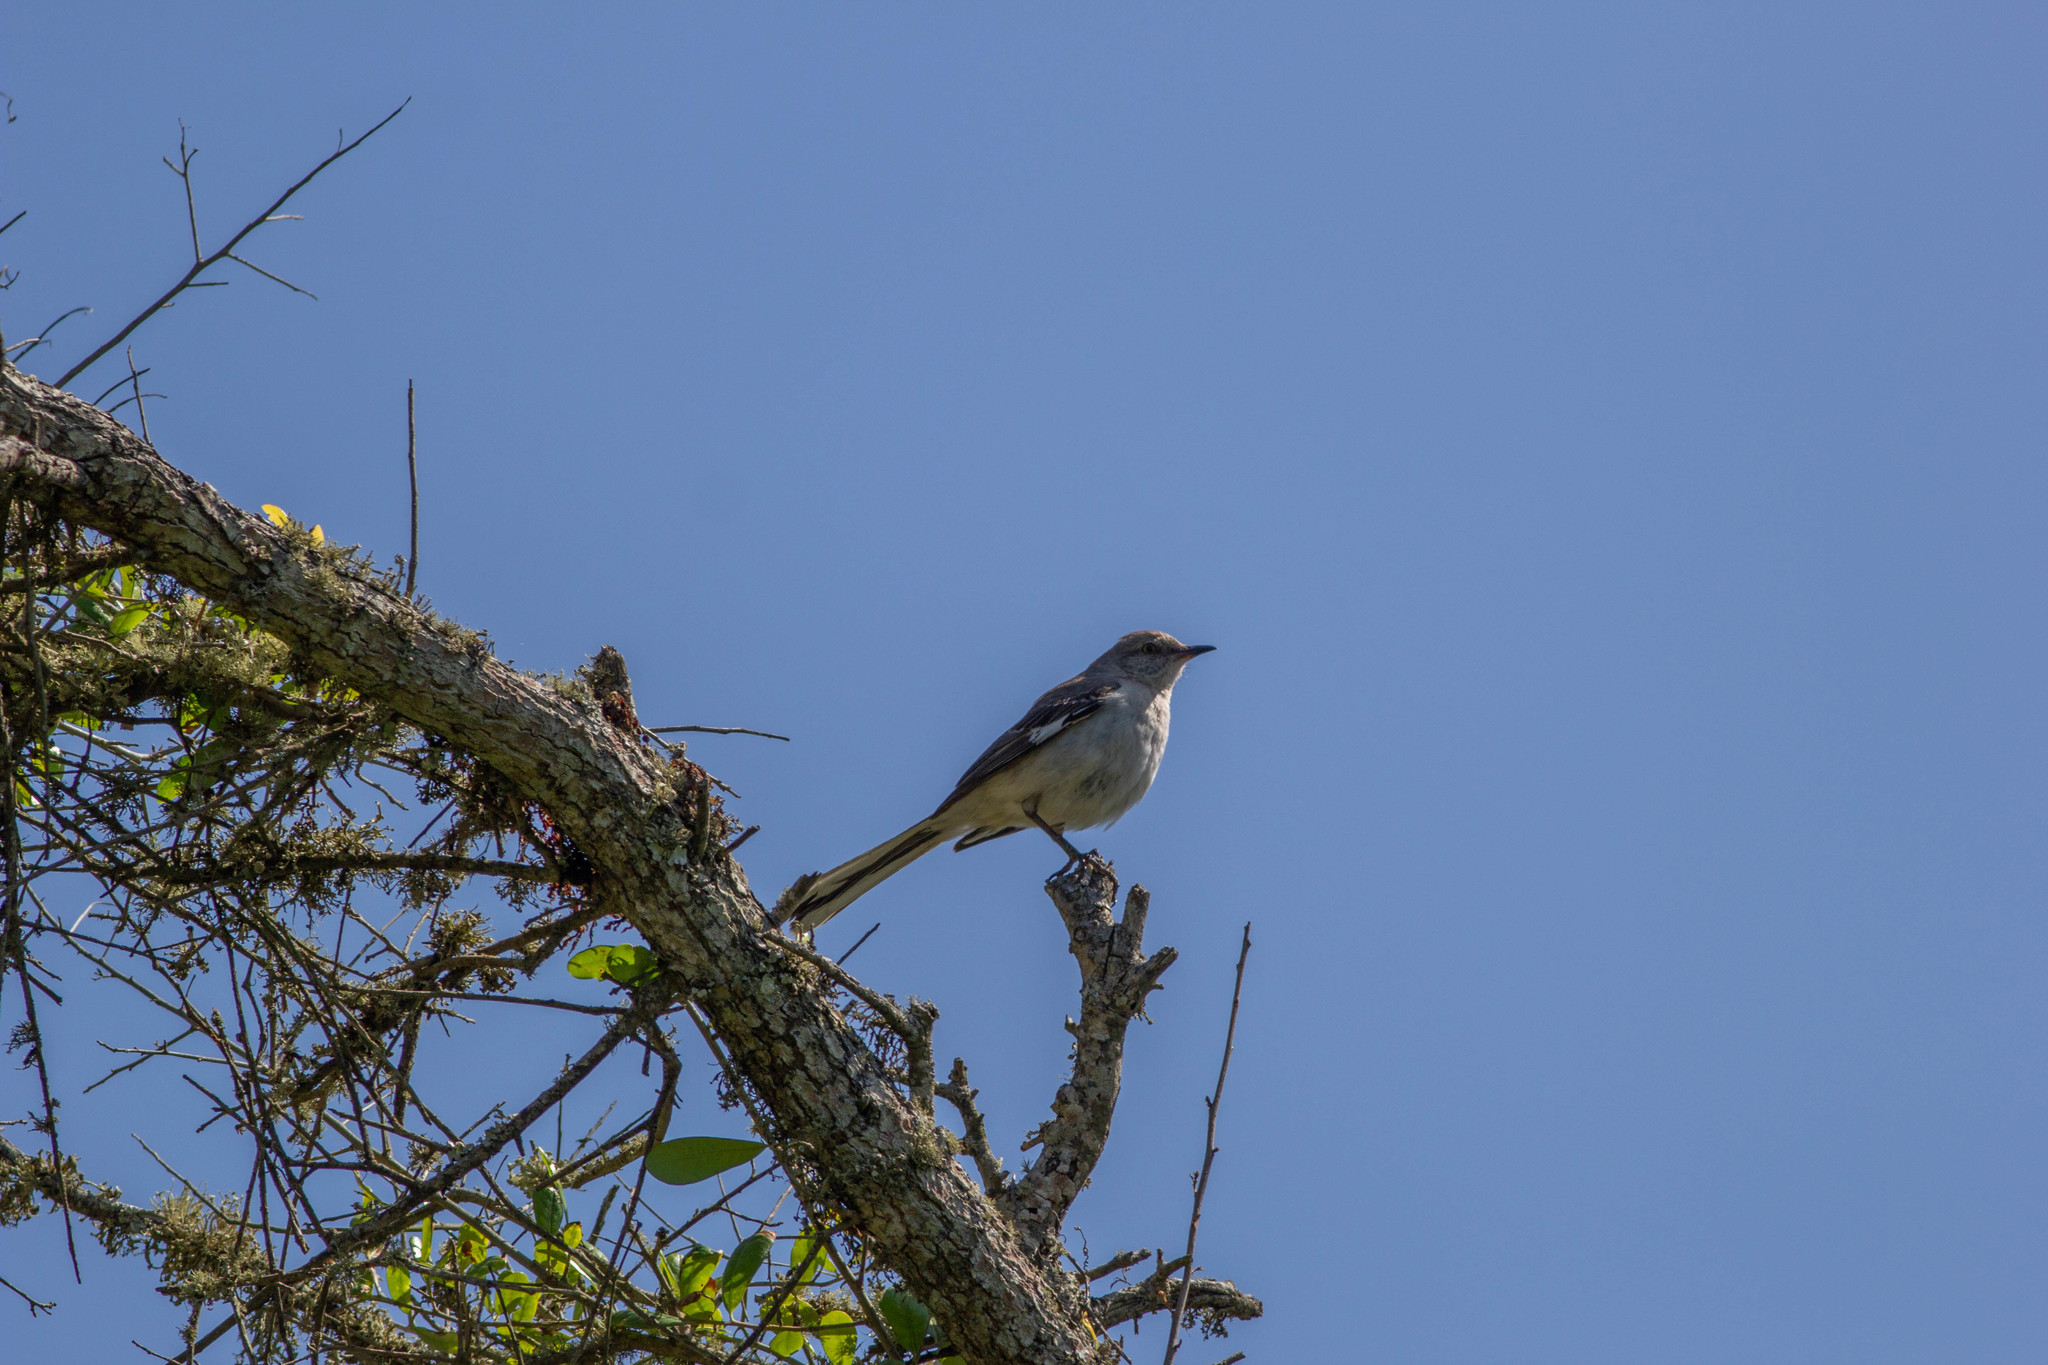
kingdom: Animalia
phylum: Chordata
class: Aves
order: Passeriformes
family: Mimidae
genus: Mimus
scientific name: Mimus polyglottos
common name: Northern mockingbird
